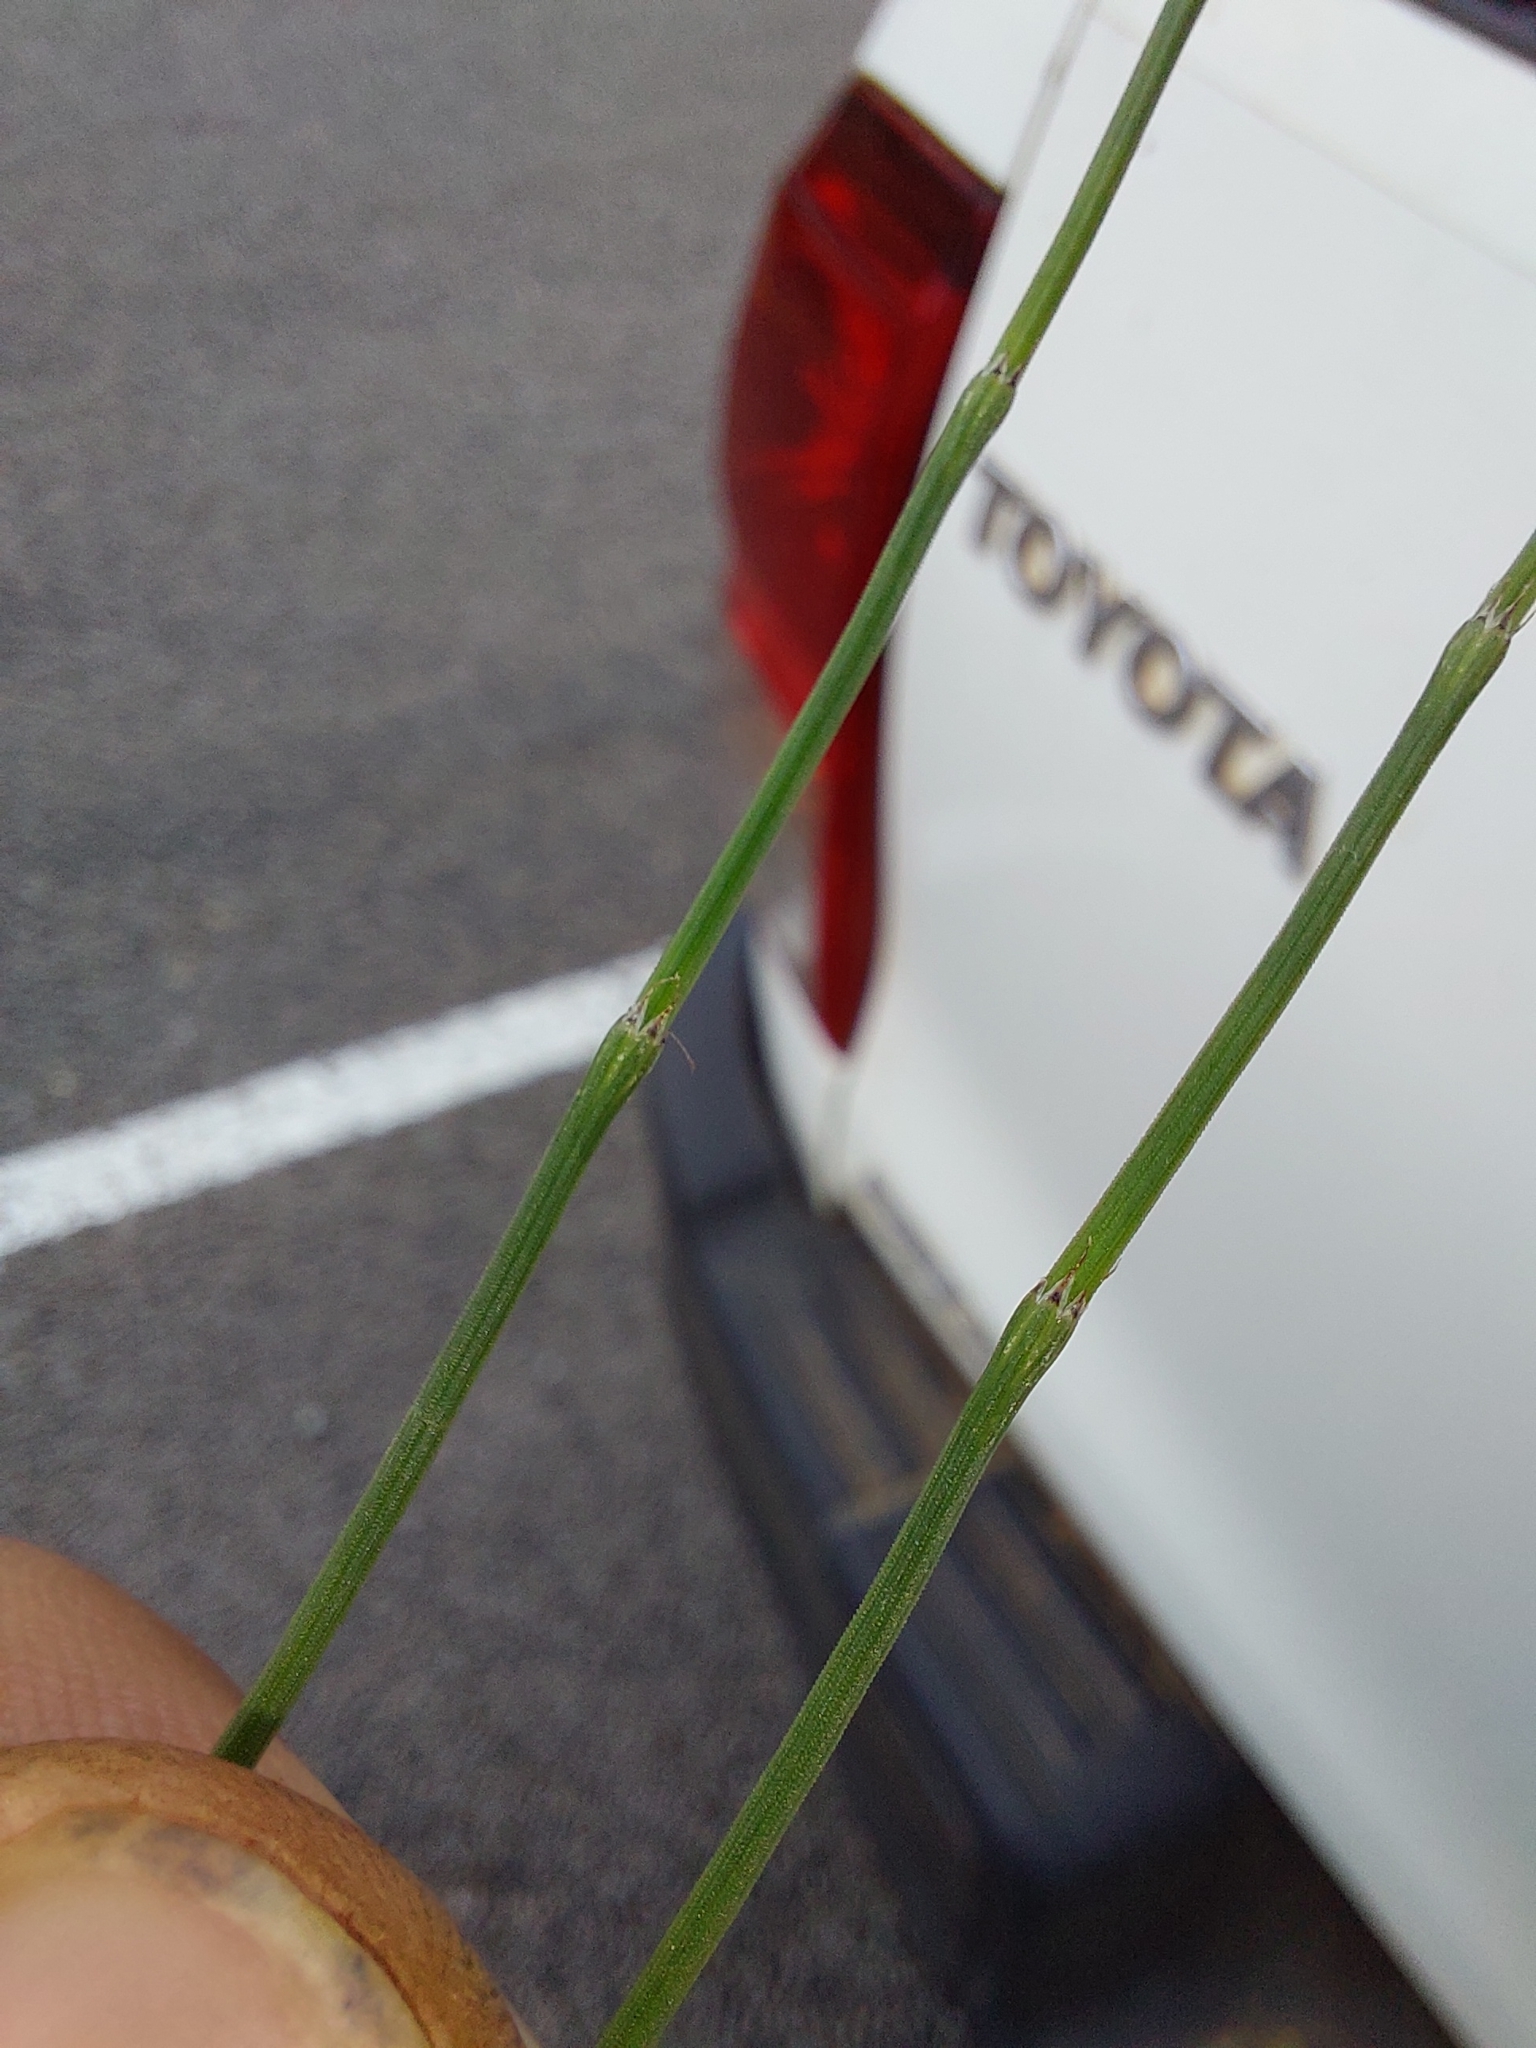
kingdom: Plantae
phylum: Tracheophyta
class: Polypodiopsida
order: Equisetales
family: Equisetaceae
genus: Equisetum
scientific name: Equisetum ramosissimum
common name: Branched horsetail
